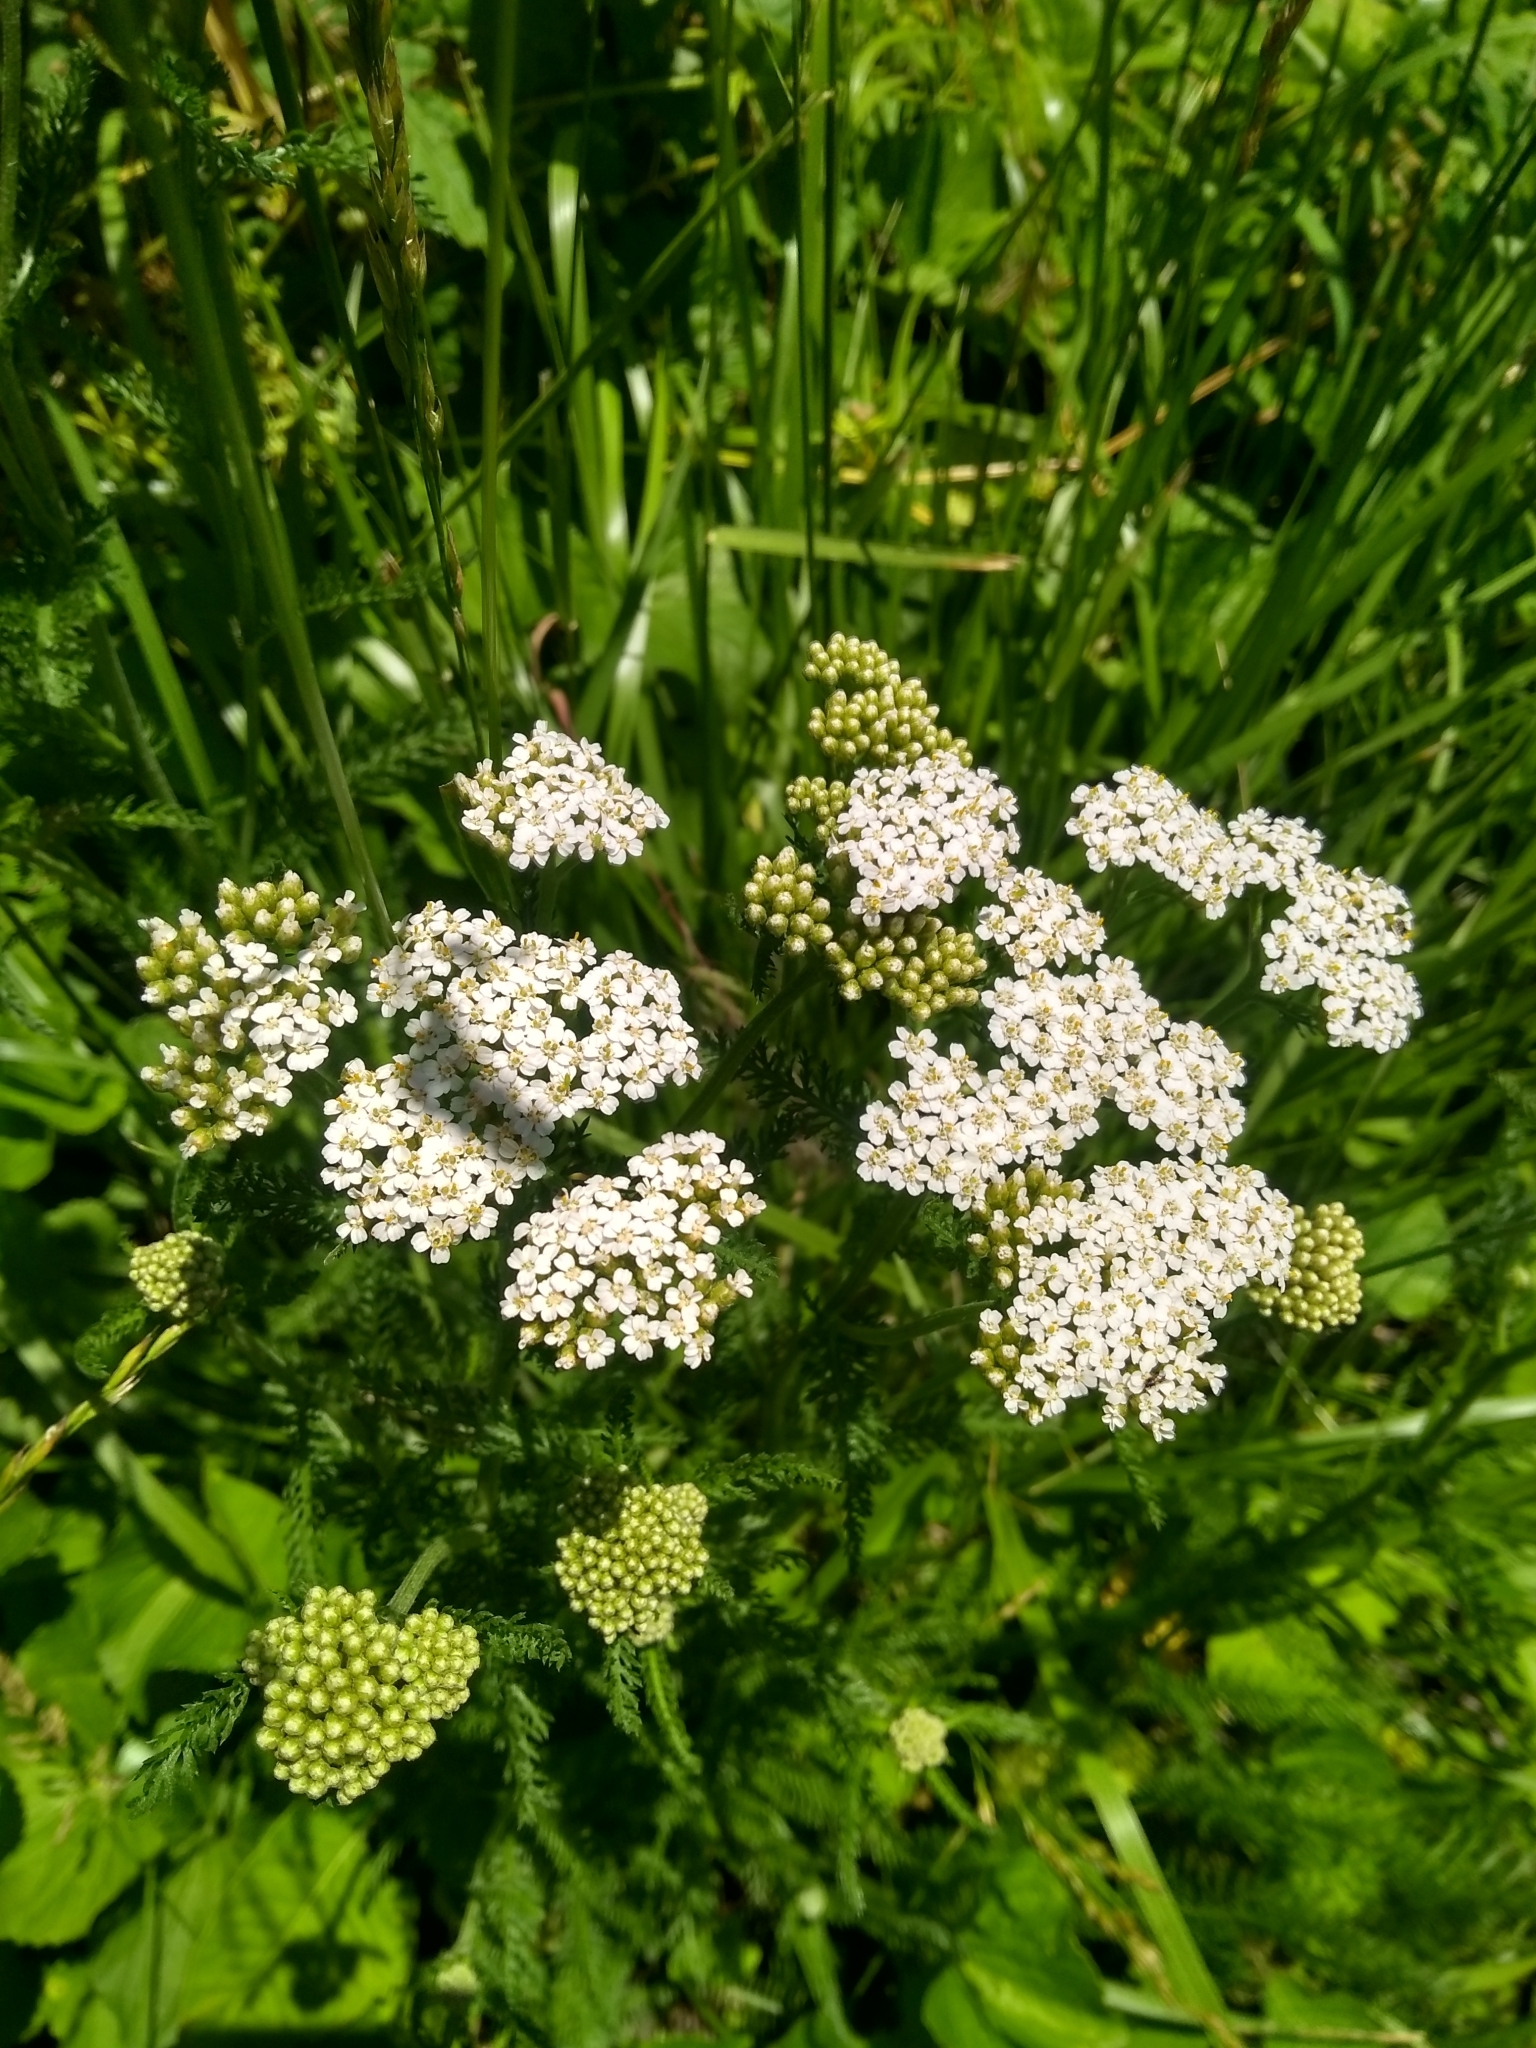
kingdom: Plantae
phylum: Tracheophyta
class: Magnoliopsida
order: Asterales
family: Asteraceae
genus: Achillea
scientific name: Achillea millefolium
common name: Yarrow
